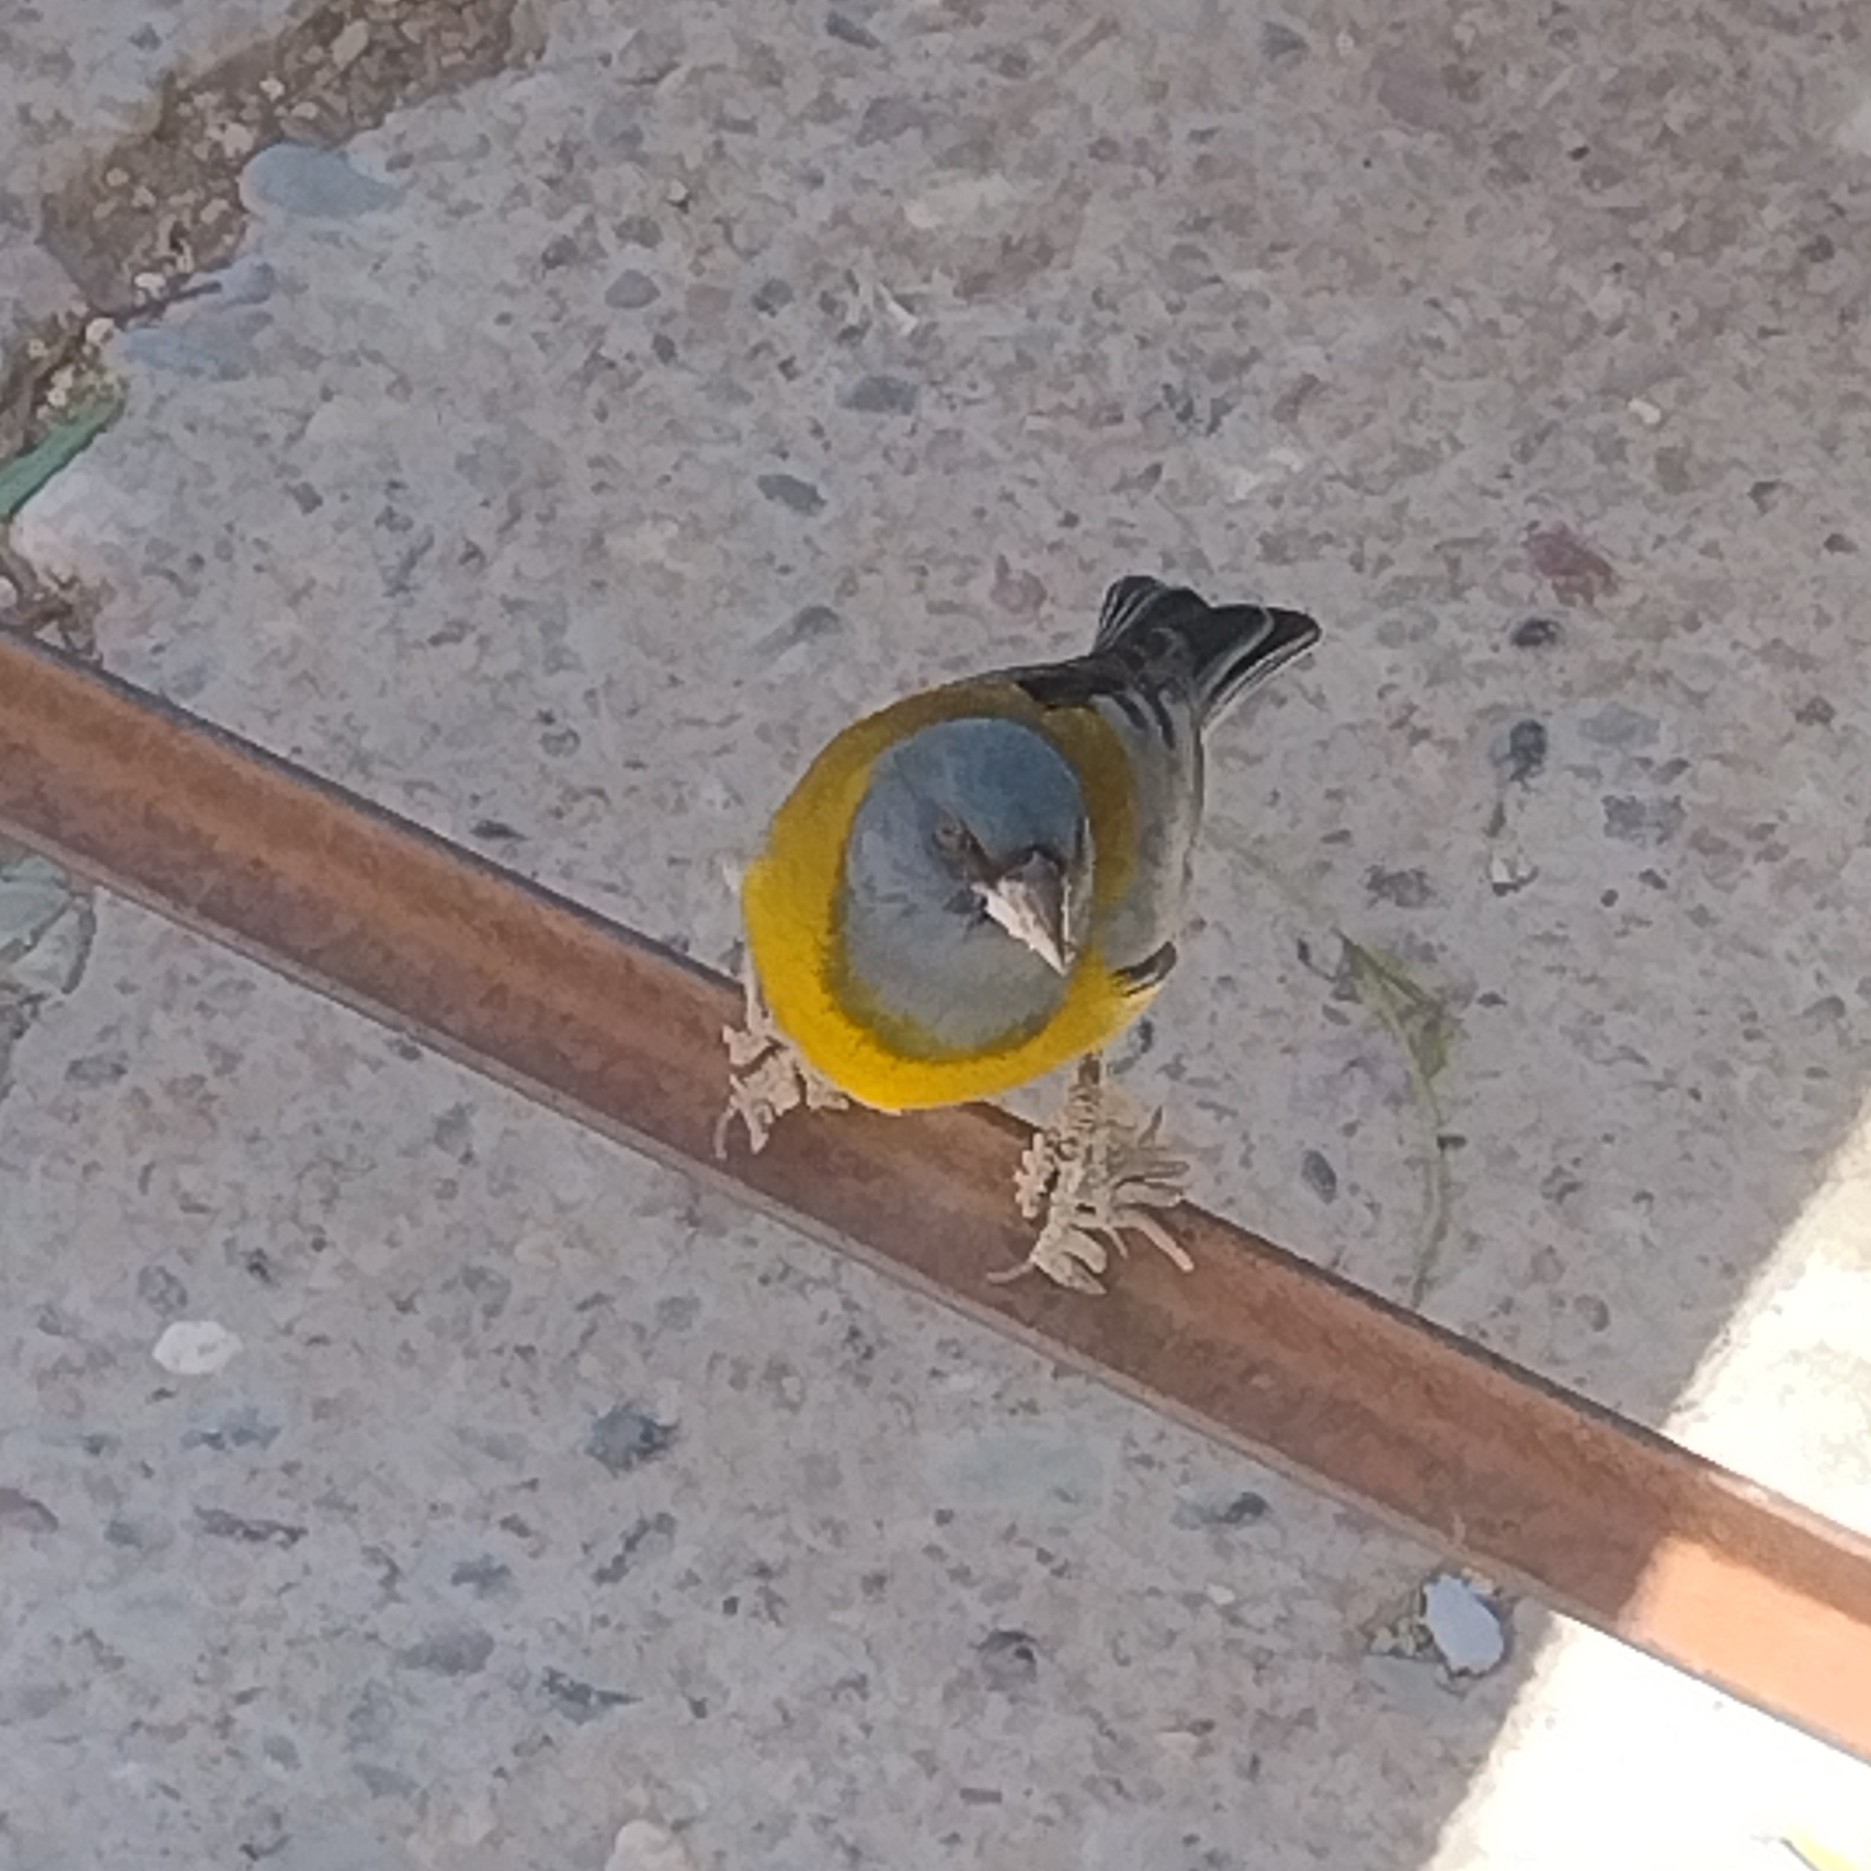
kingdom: Animalia
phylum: Chordata
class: Aves
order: Passeriformes
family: Thraupidae
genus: Phrygilus
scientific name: Phrygilus gayi
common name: Grey-hooded sierra finch
